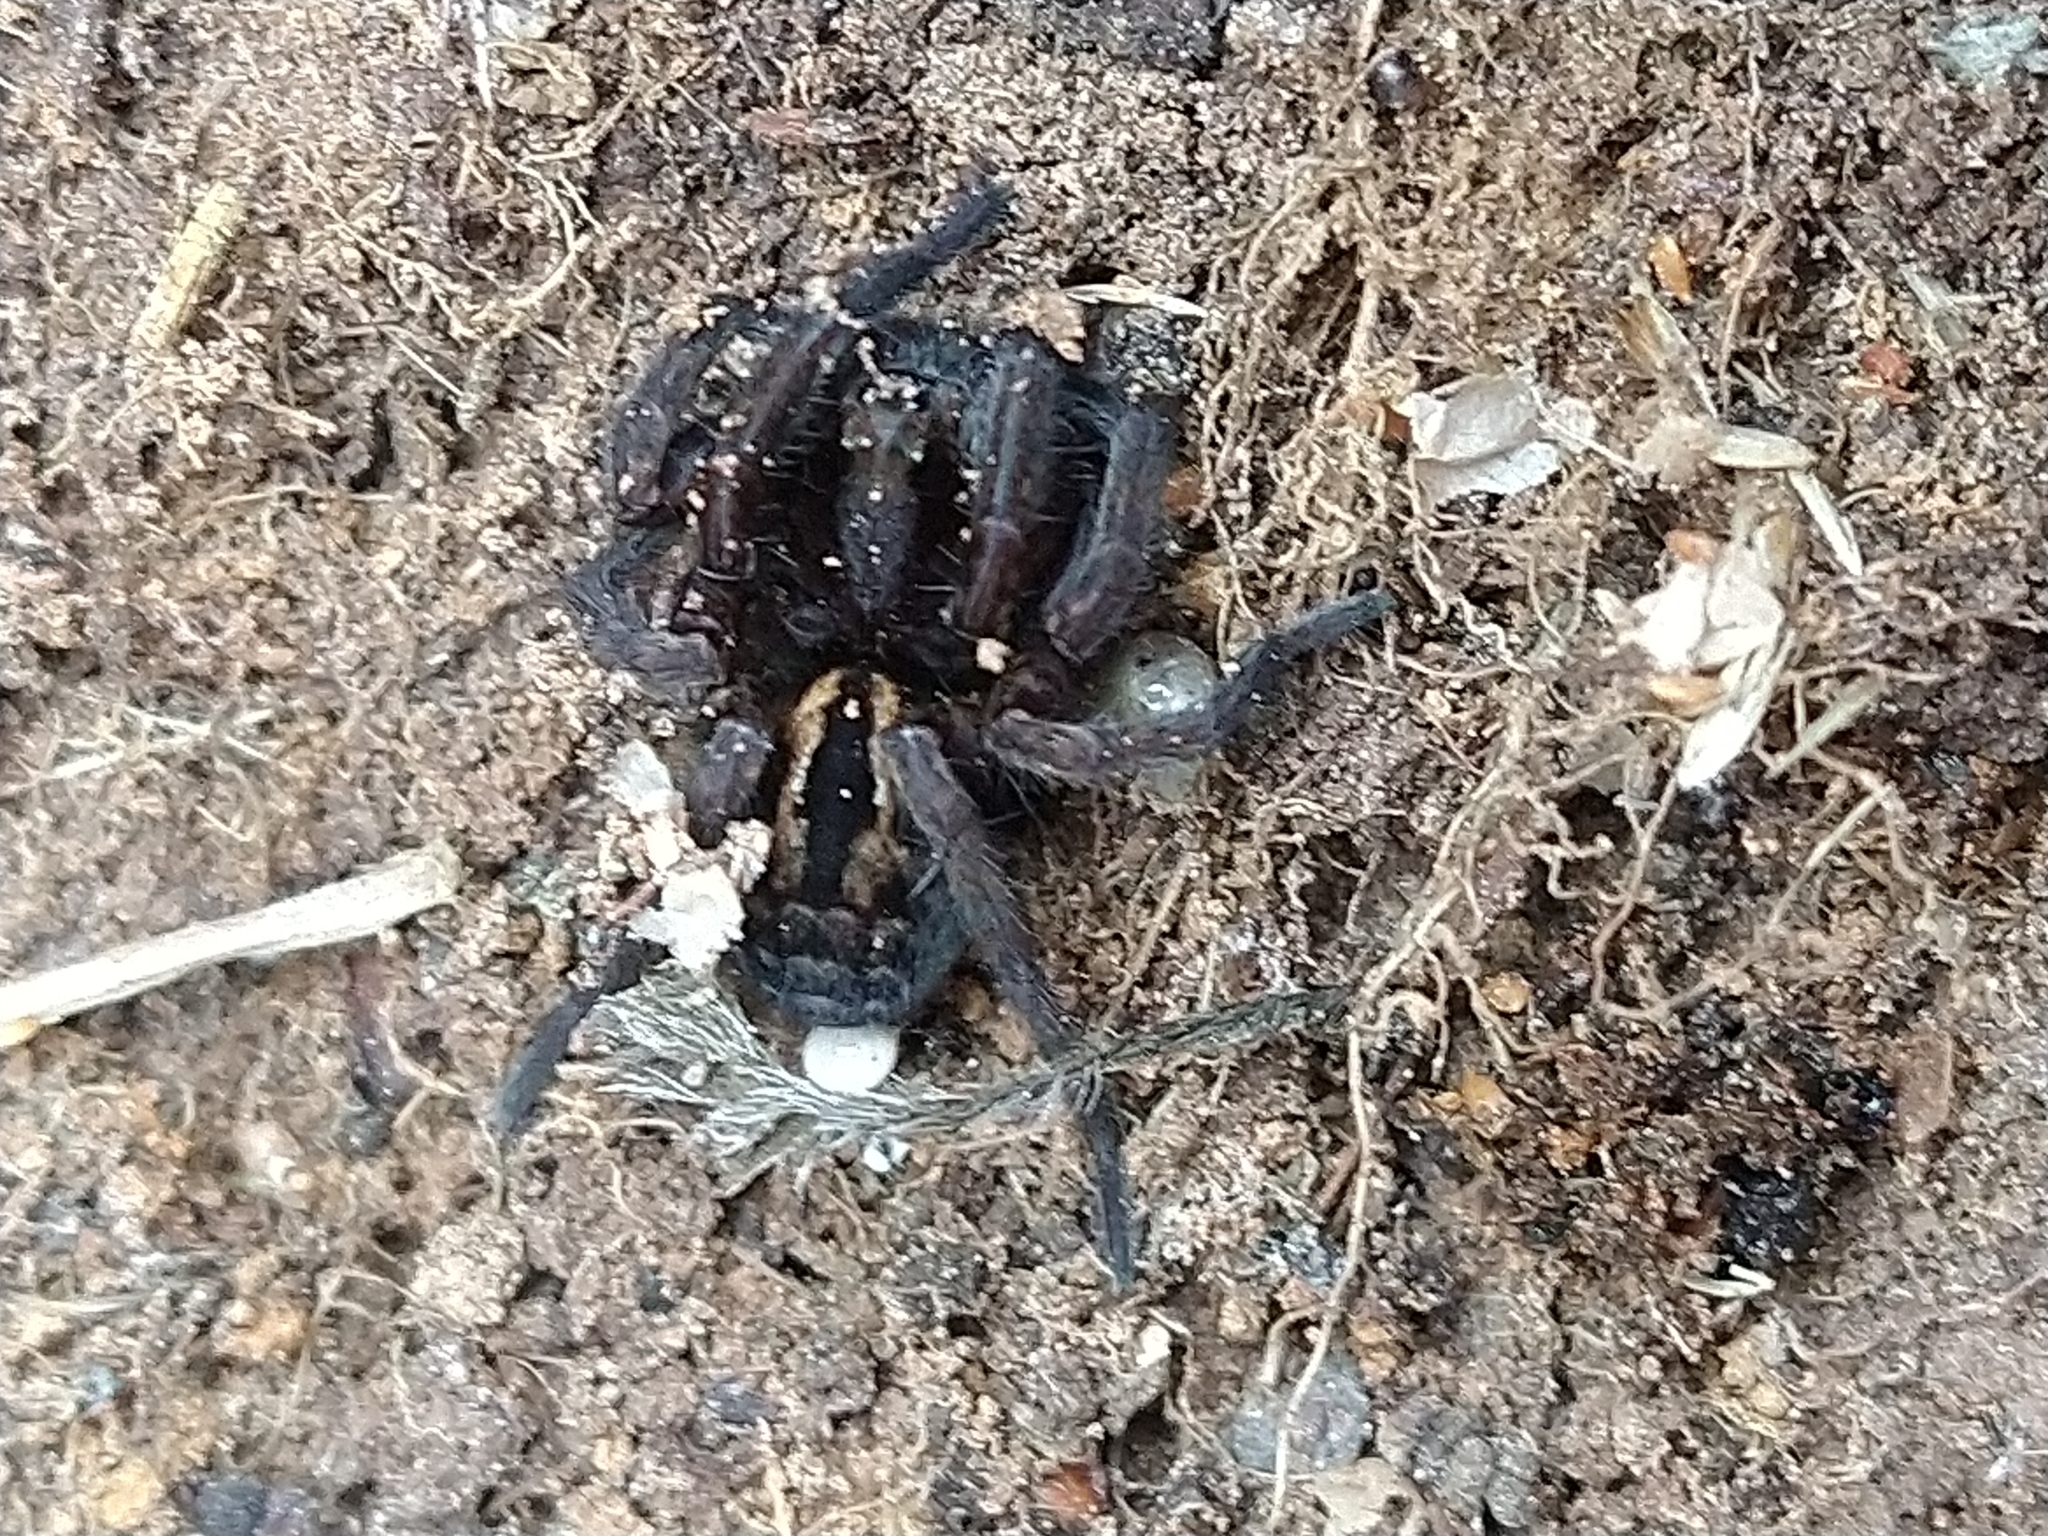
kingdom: Animalia
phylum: Arthropoda
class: Arachnida
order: Araneae
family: Lycosidae
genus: Lycosa
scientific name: Lycosa australis
